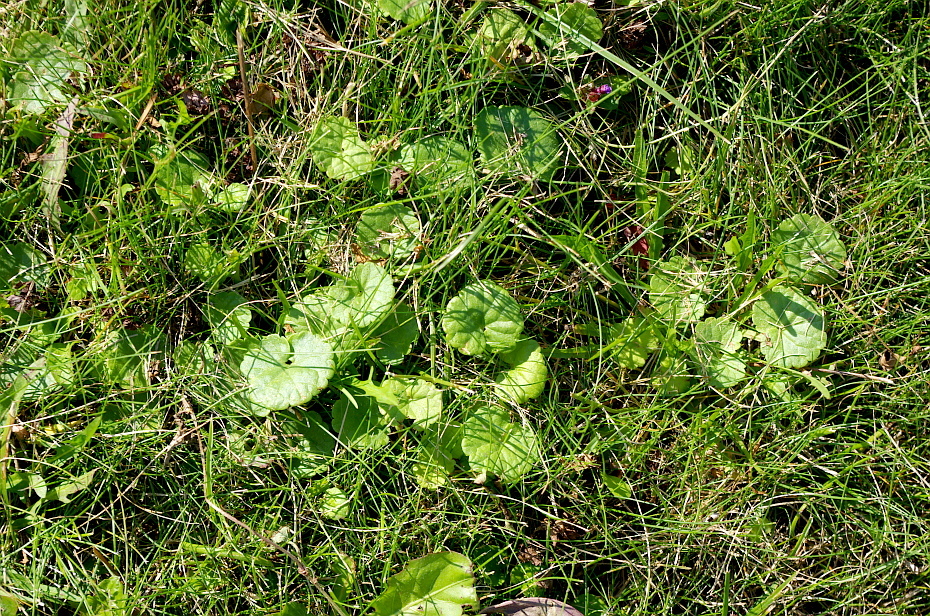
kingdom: Plantae
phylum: Tracheophyta
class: Magnoliopsida
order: Lamiales
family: Lamiaceae
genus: Glechoma
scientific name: Glechoma hederacea
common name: Ground ivy
